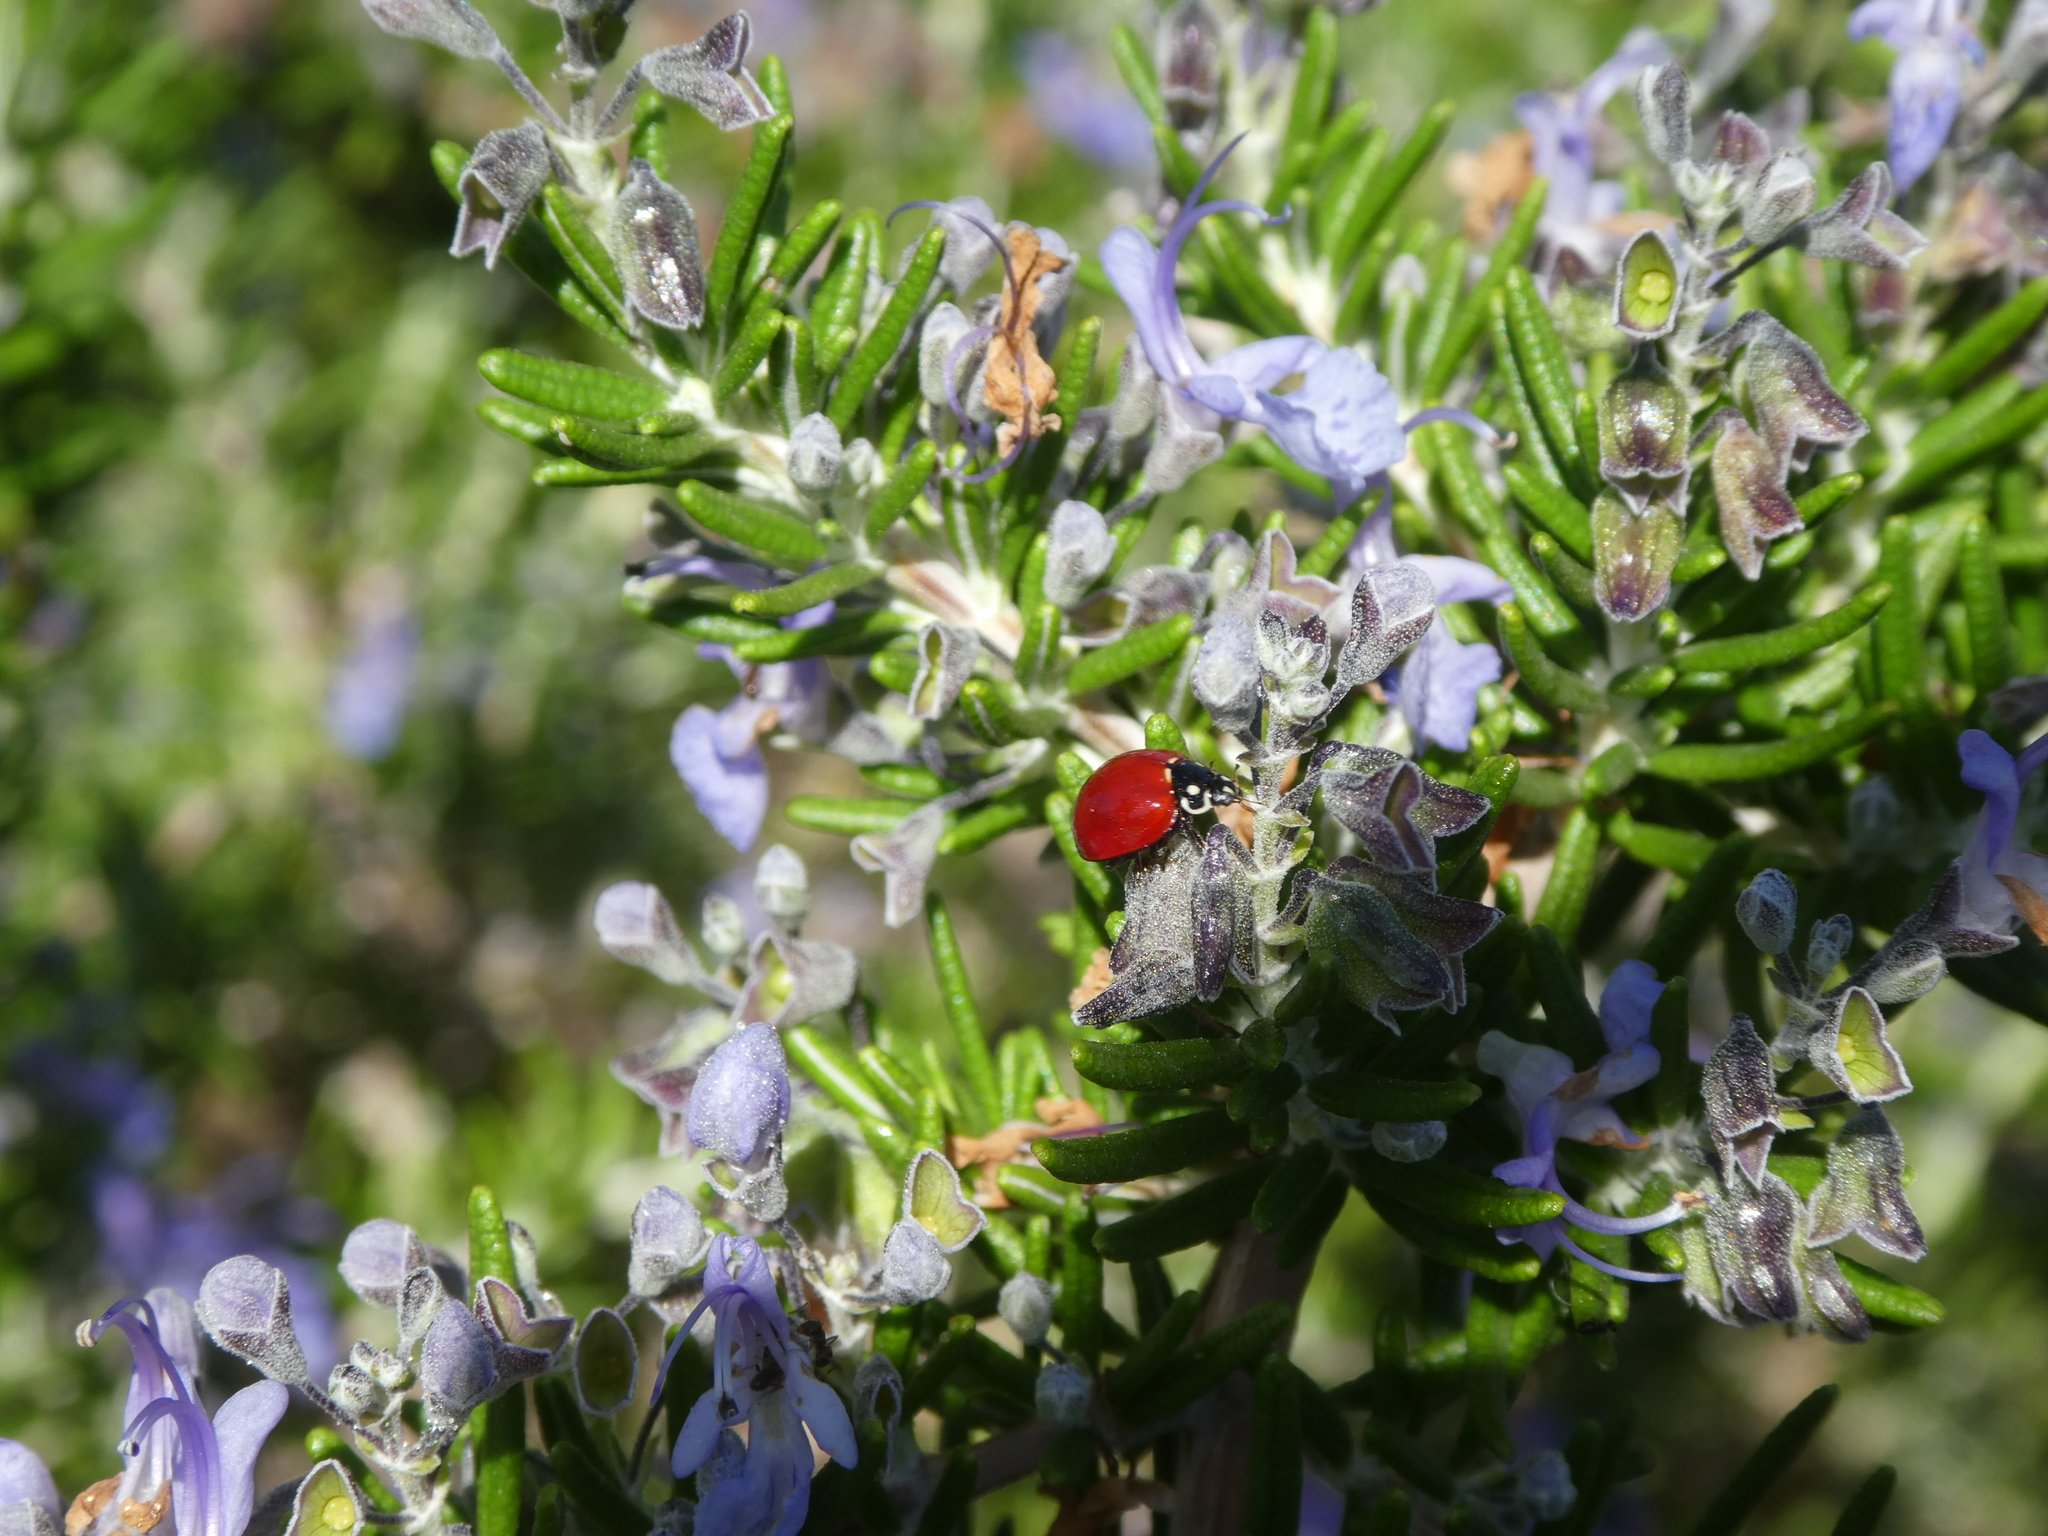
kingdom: Animalia
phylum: Arthropoda
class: Insecta
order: Coleoptera
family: Coccinellidae
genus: Cycloneda
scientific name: Cycloneda sanguinea
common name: Ladybird beetle
